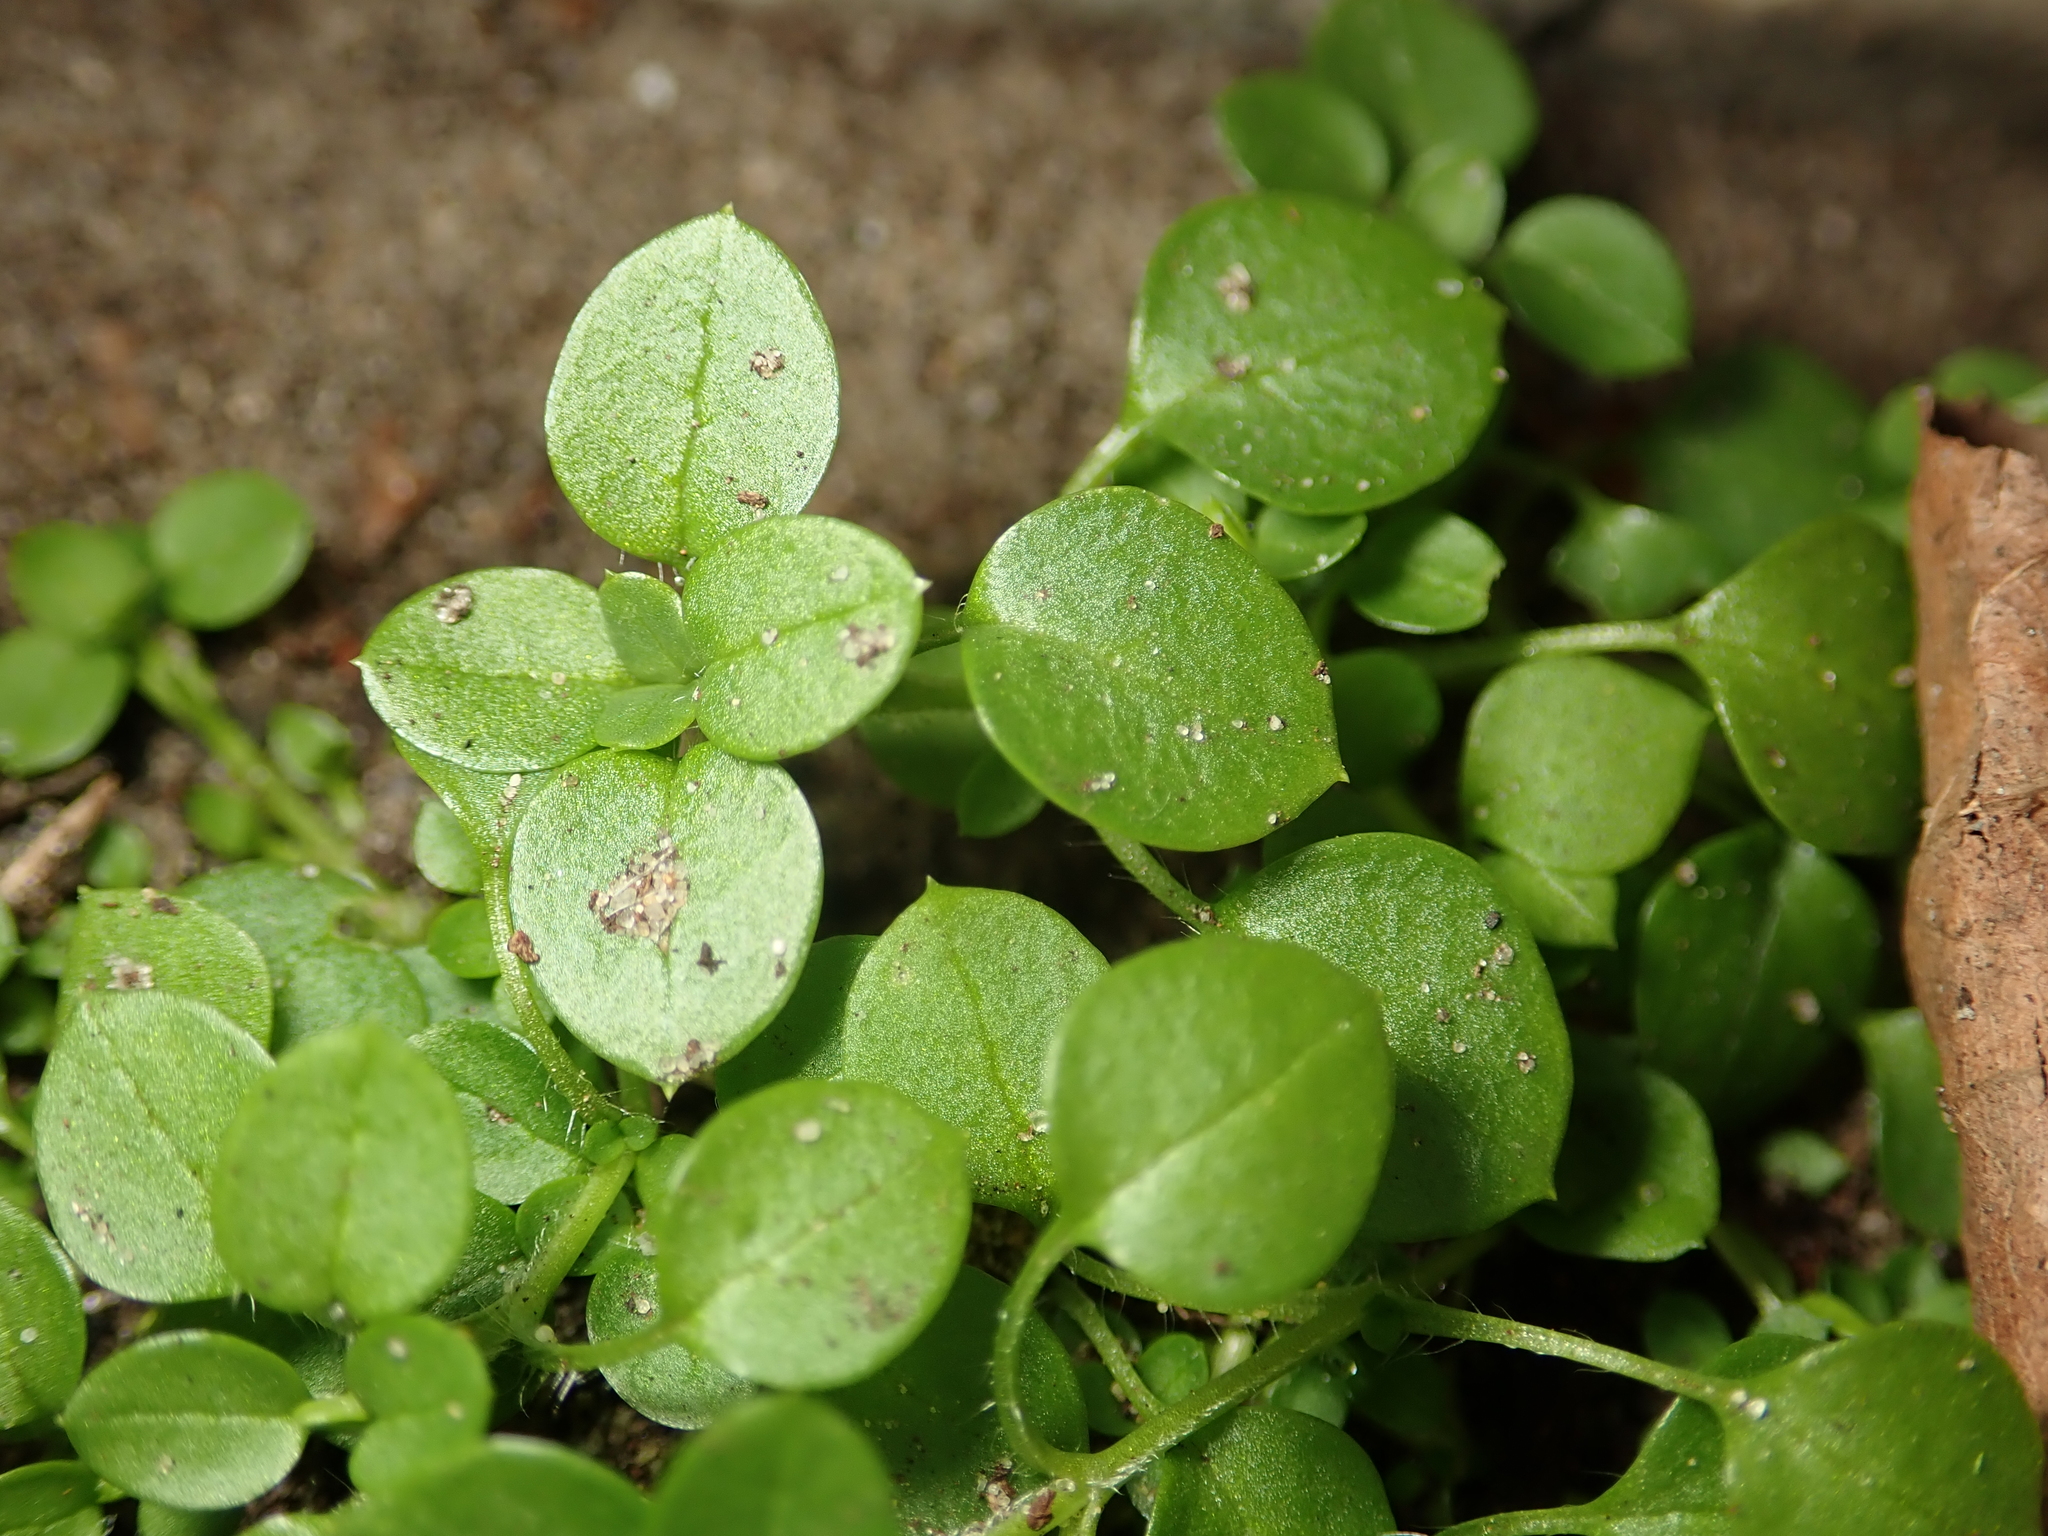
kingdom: Plantae
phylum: Tracheophyta
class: Magnoliopsida
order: Caryophyllales
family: Caryophyllaceae
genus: Stellaria
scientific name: Stellaria media
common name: Common chickweed
